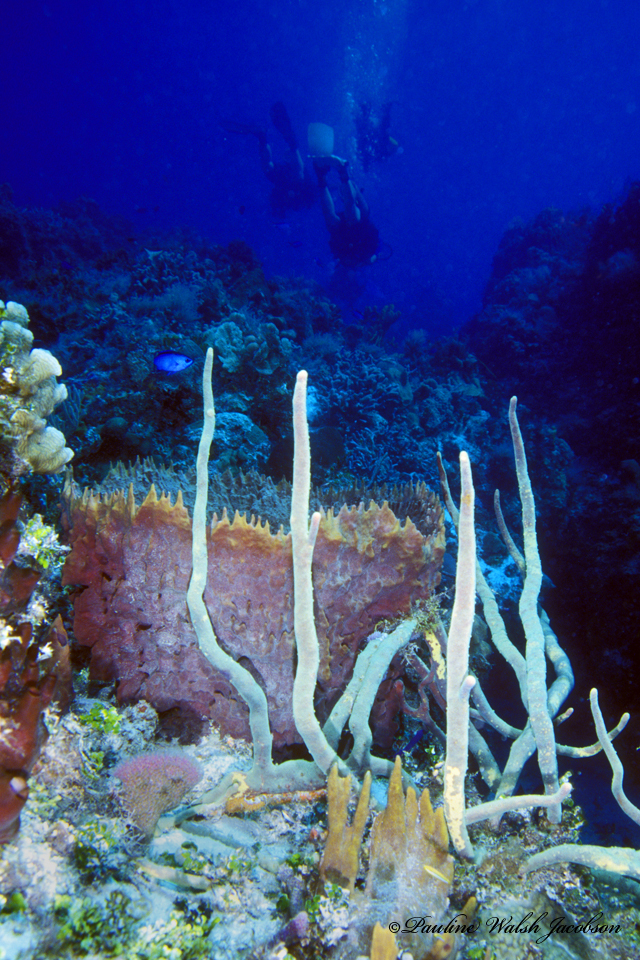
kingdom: Animalia
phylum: Porifera
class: Demospongiae
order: Haplosclerida
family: Petrosiidae
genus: Xestospongia
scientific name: Xestospongia muta
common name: Giant barrel sponge
